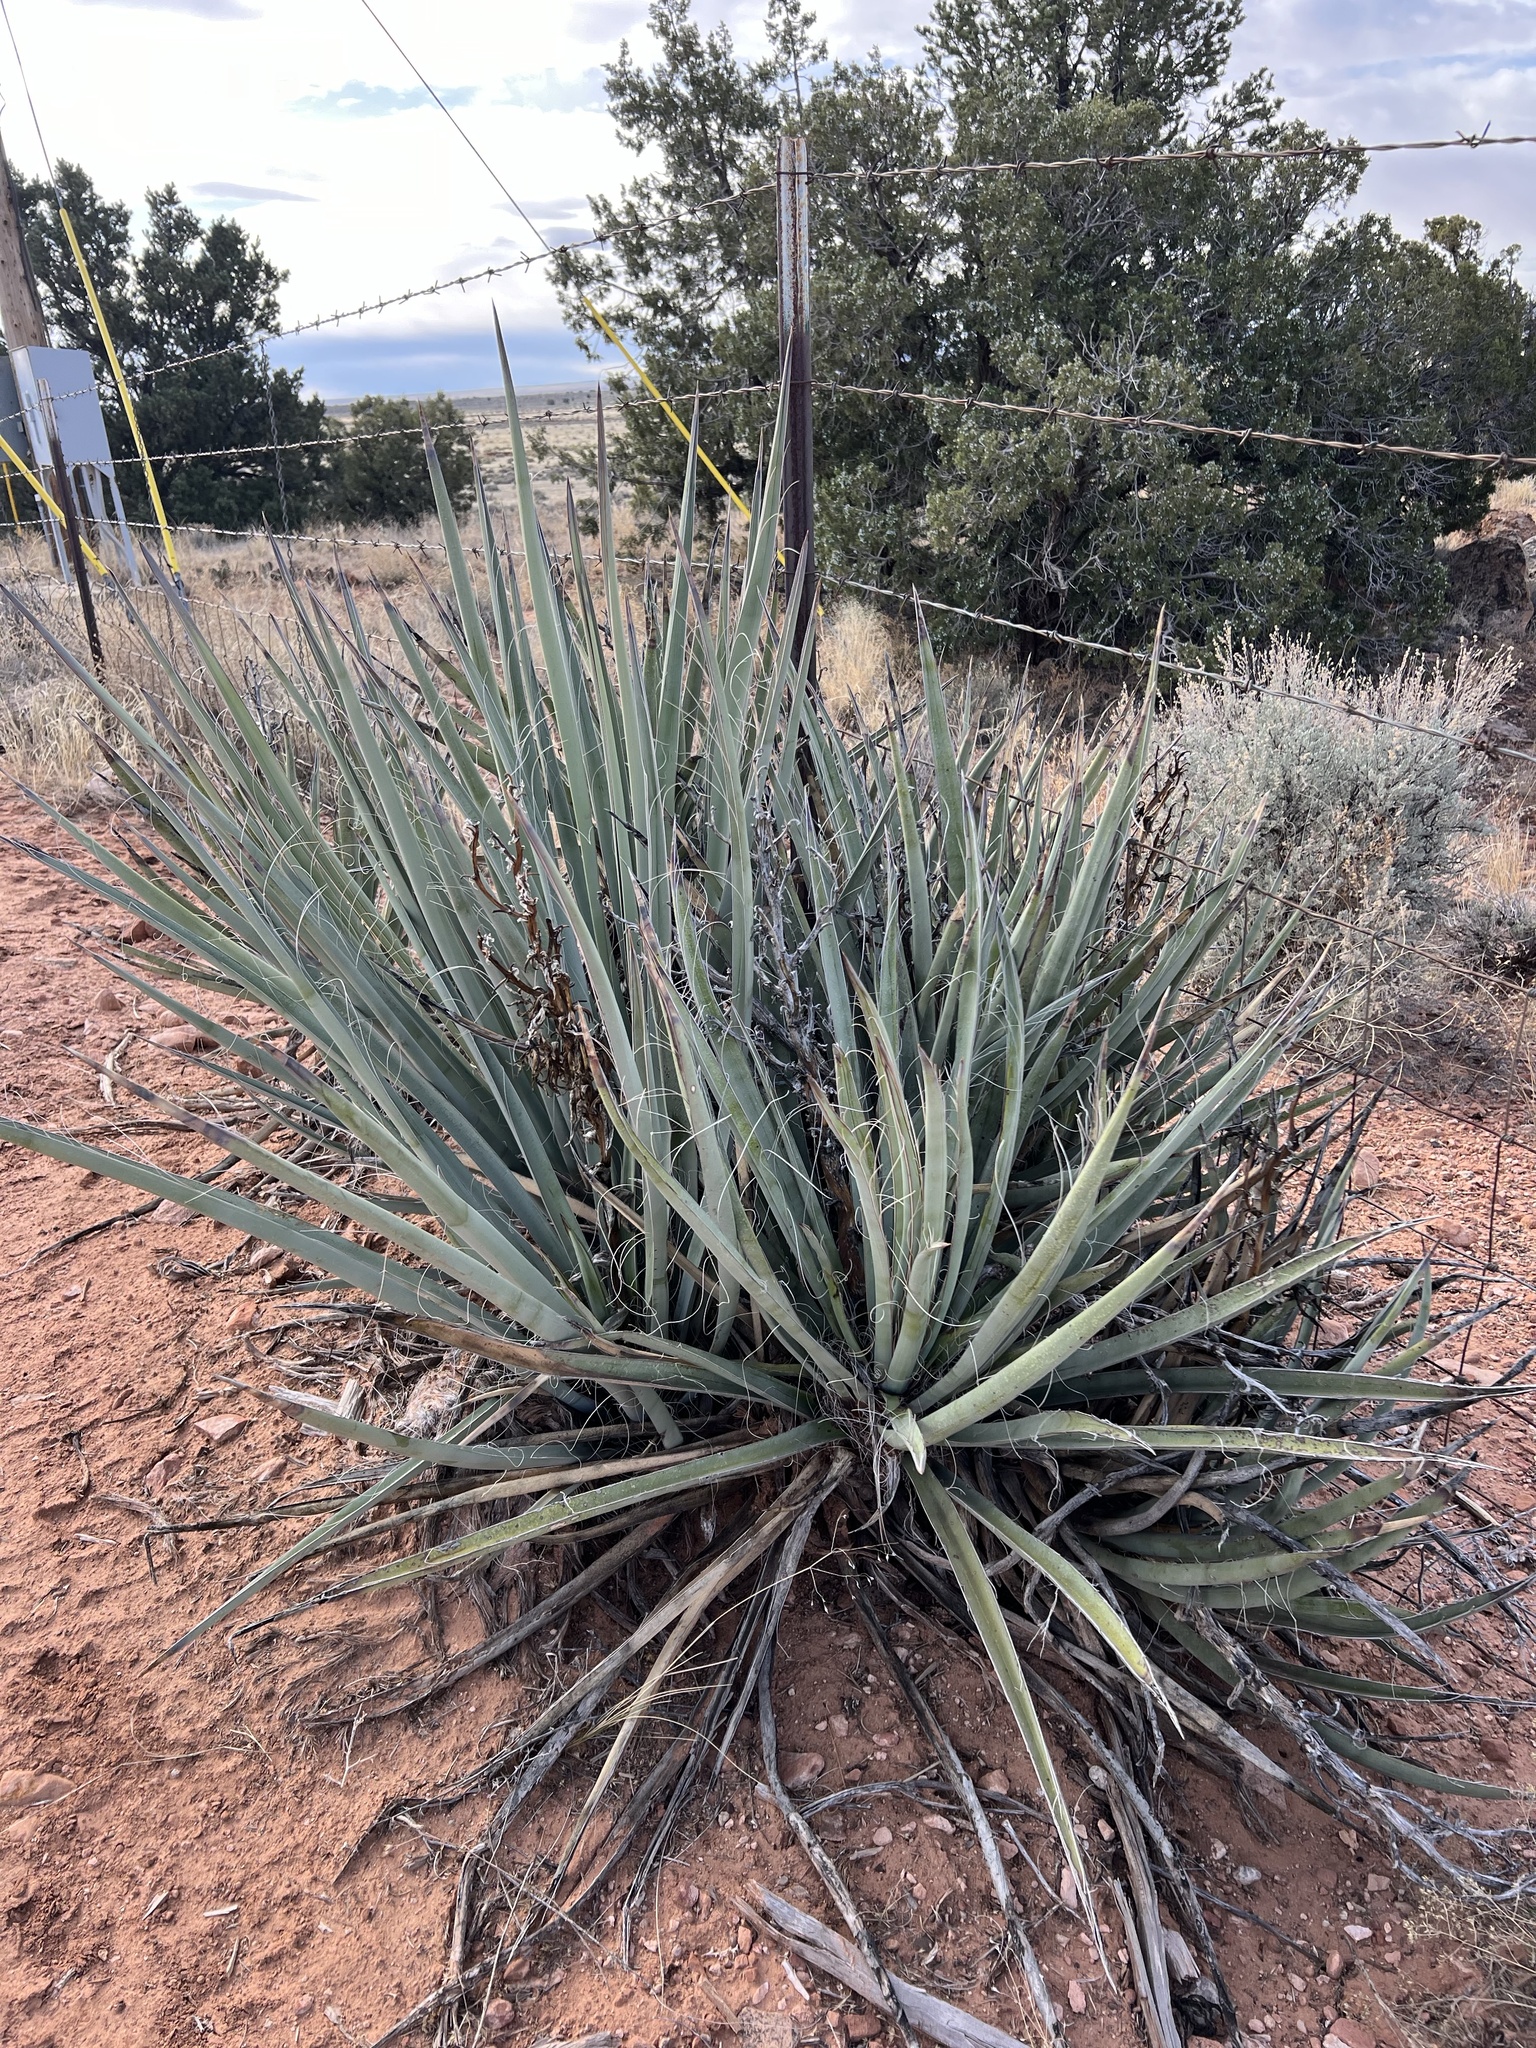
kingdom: Plantae
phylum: Tracheophyta
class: Liliopsida
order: Asparagales
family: Asparagaceae
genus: Yucca
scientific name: Yucca baccata
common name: Banana yucca
